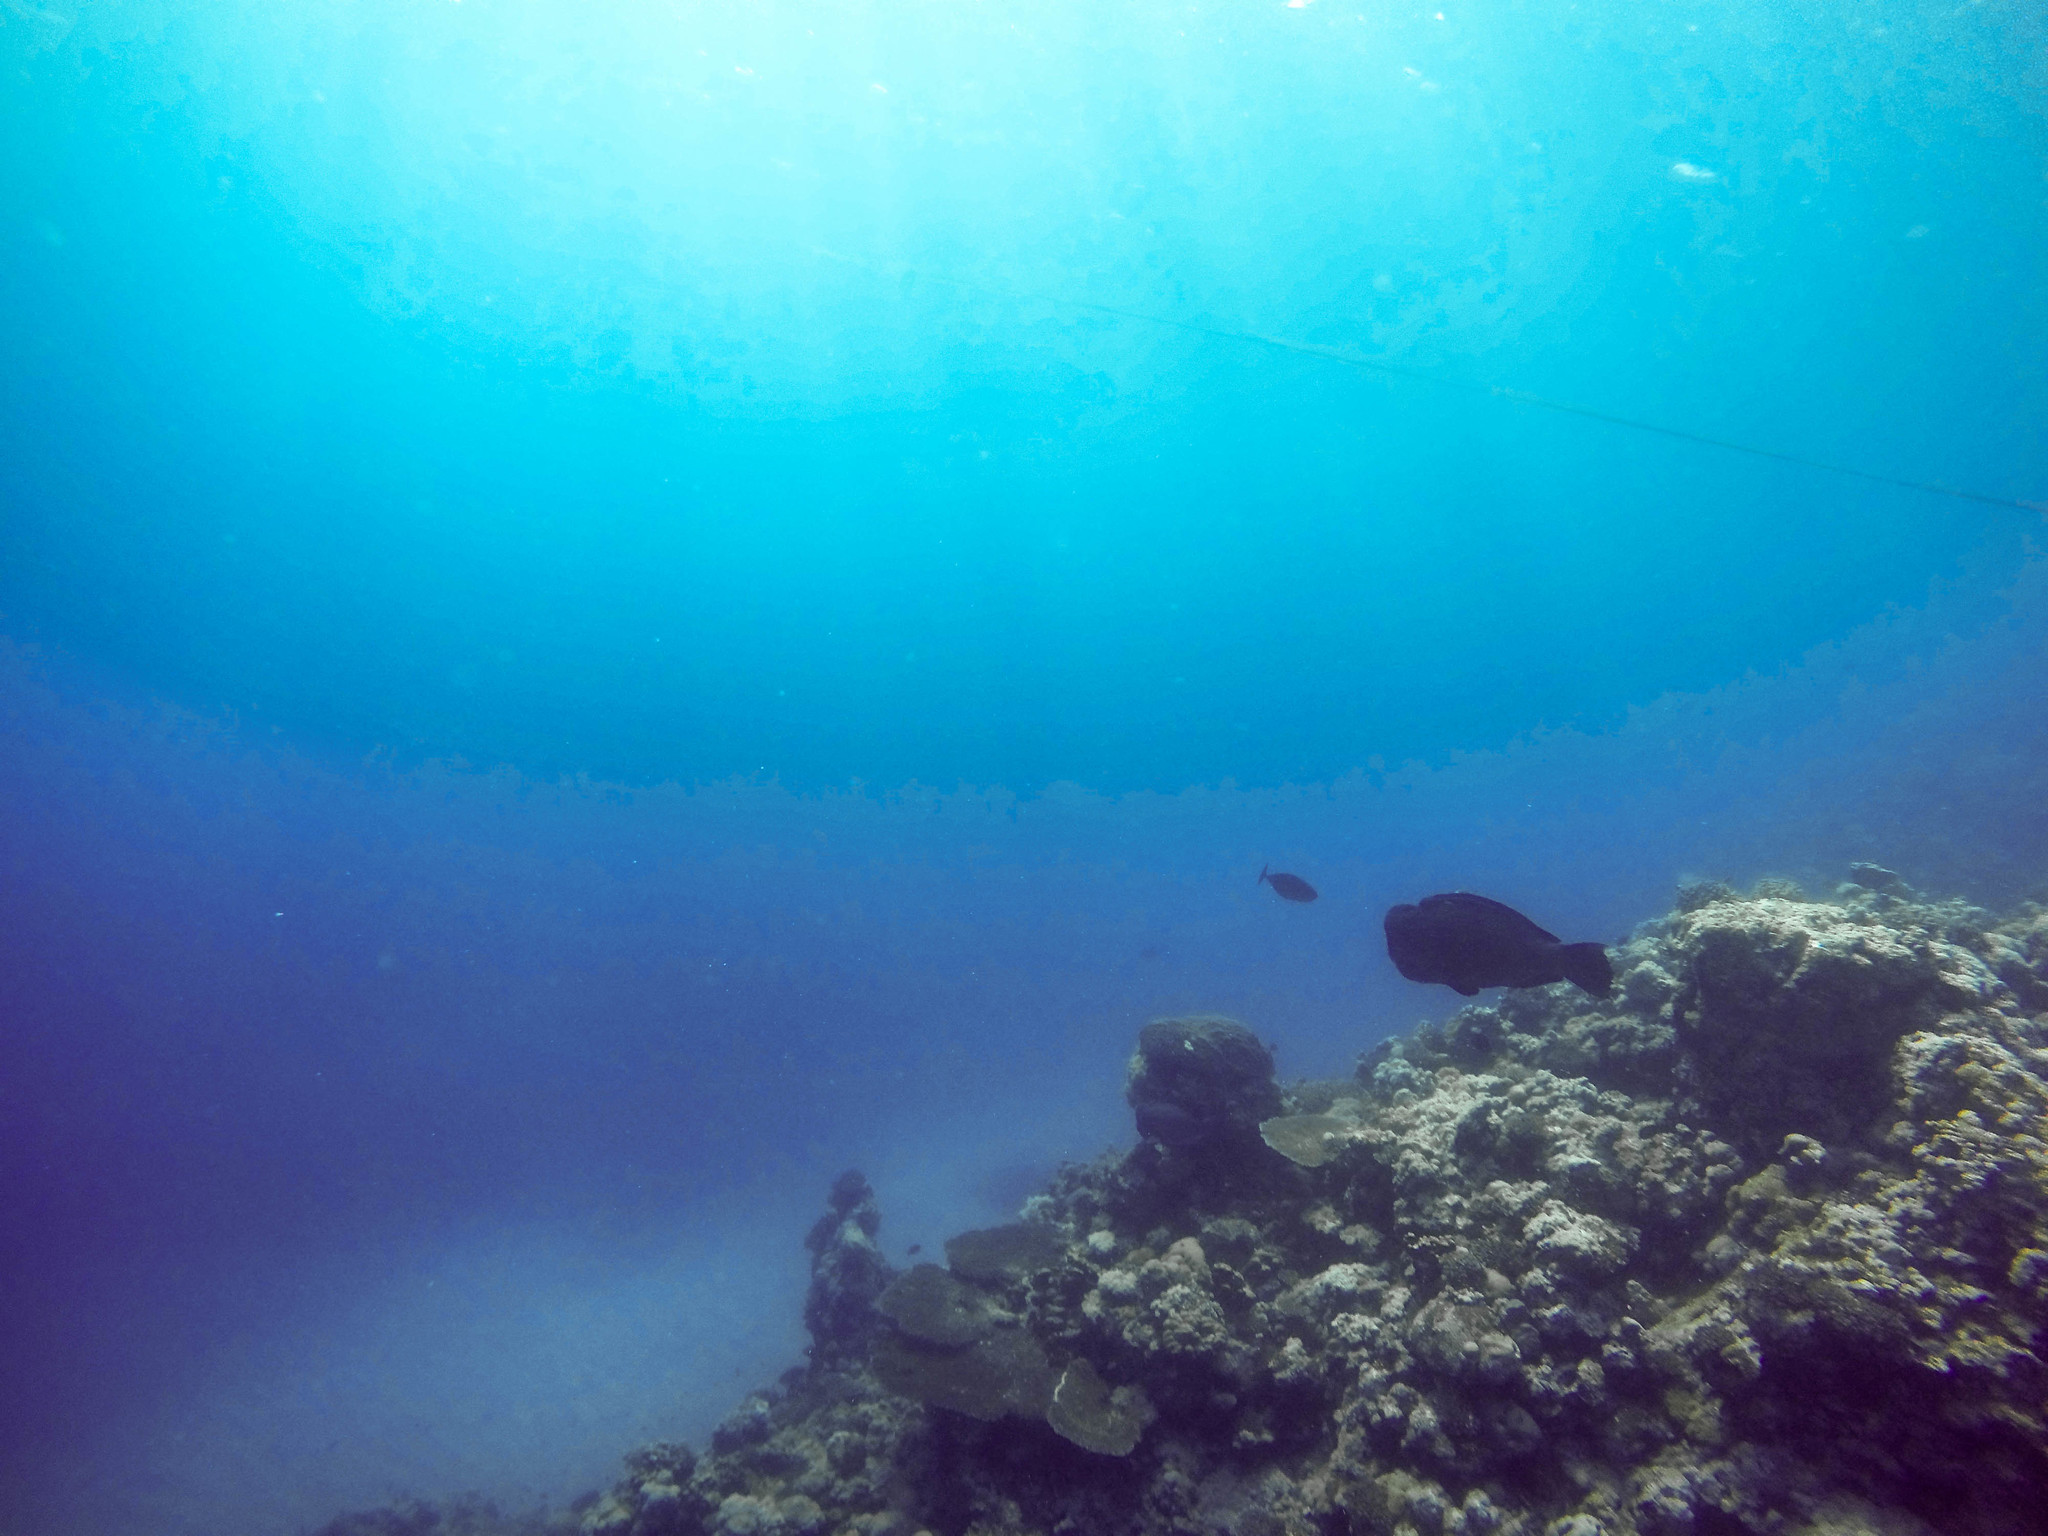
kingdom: Animalia
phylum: Chordata
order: Perciformes
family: Scaridae
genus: Bolbometopon
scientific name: Bolbometopon muricatum
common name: Humphead parrotfish
